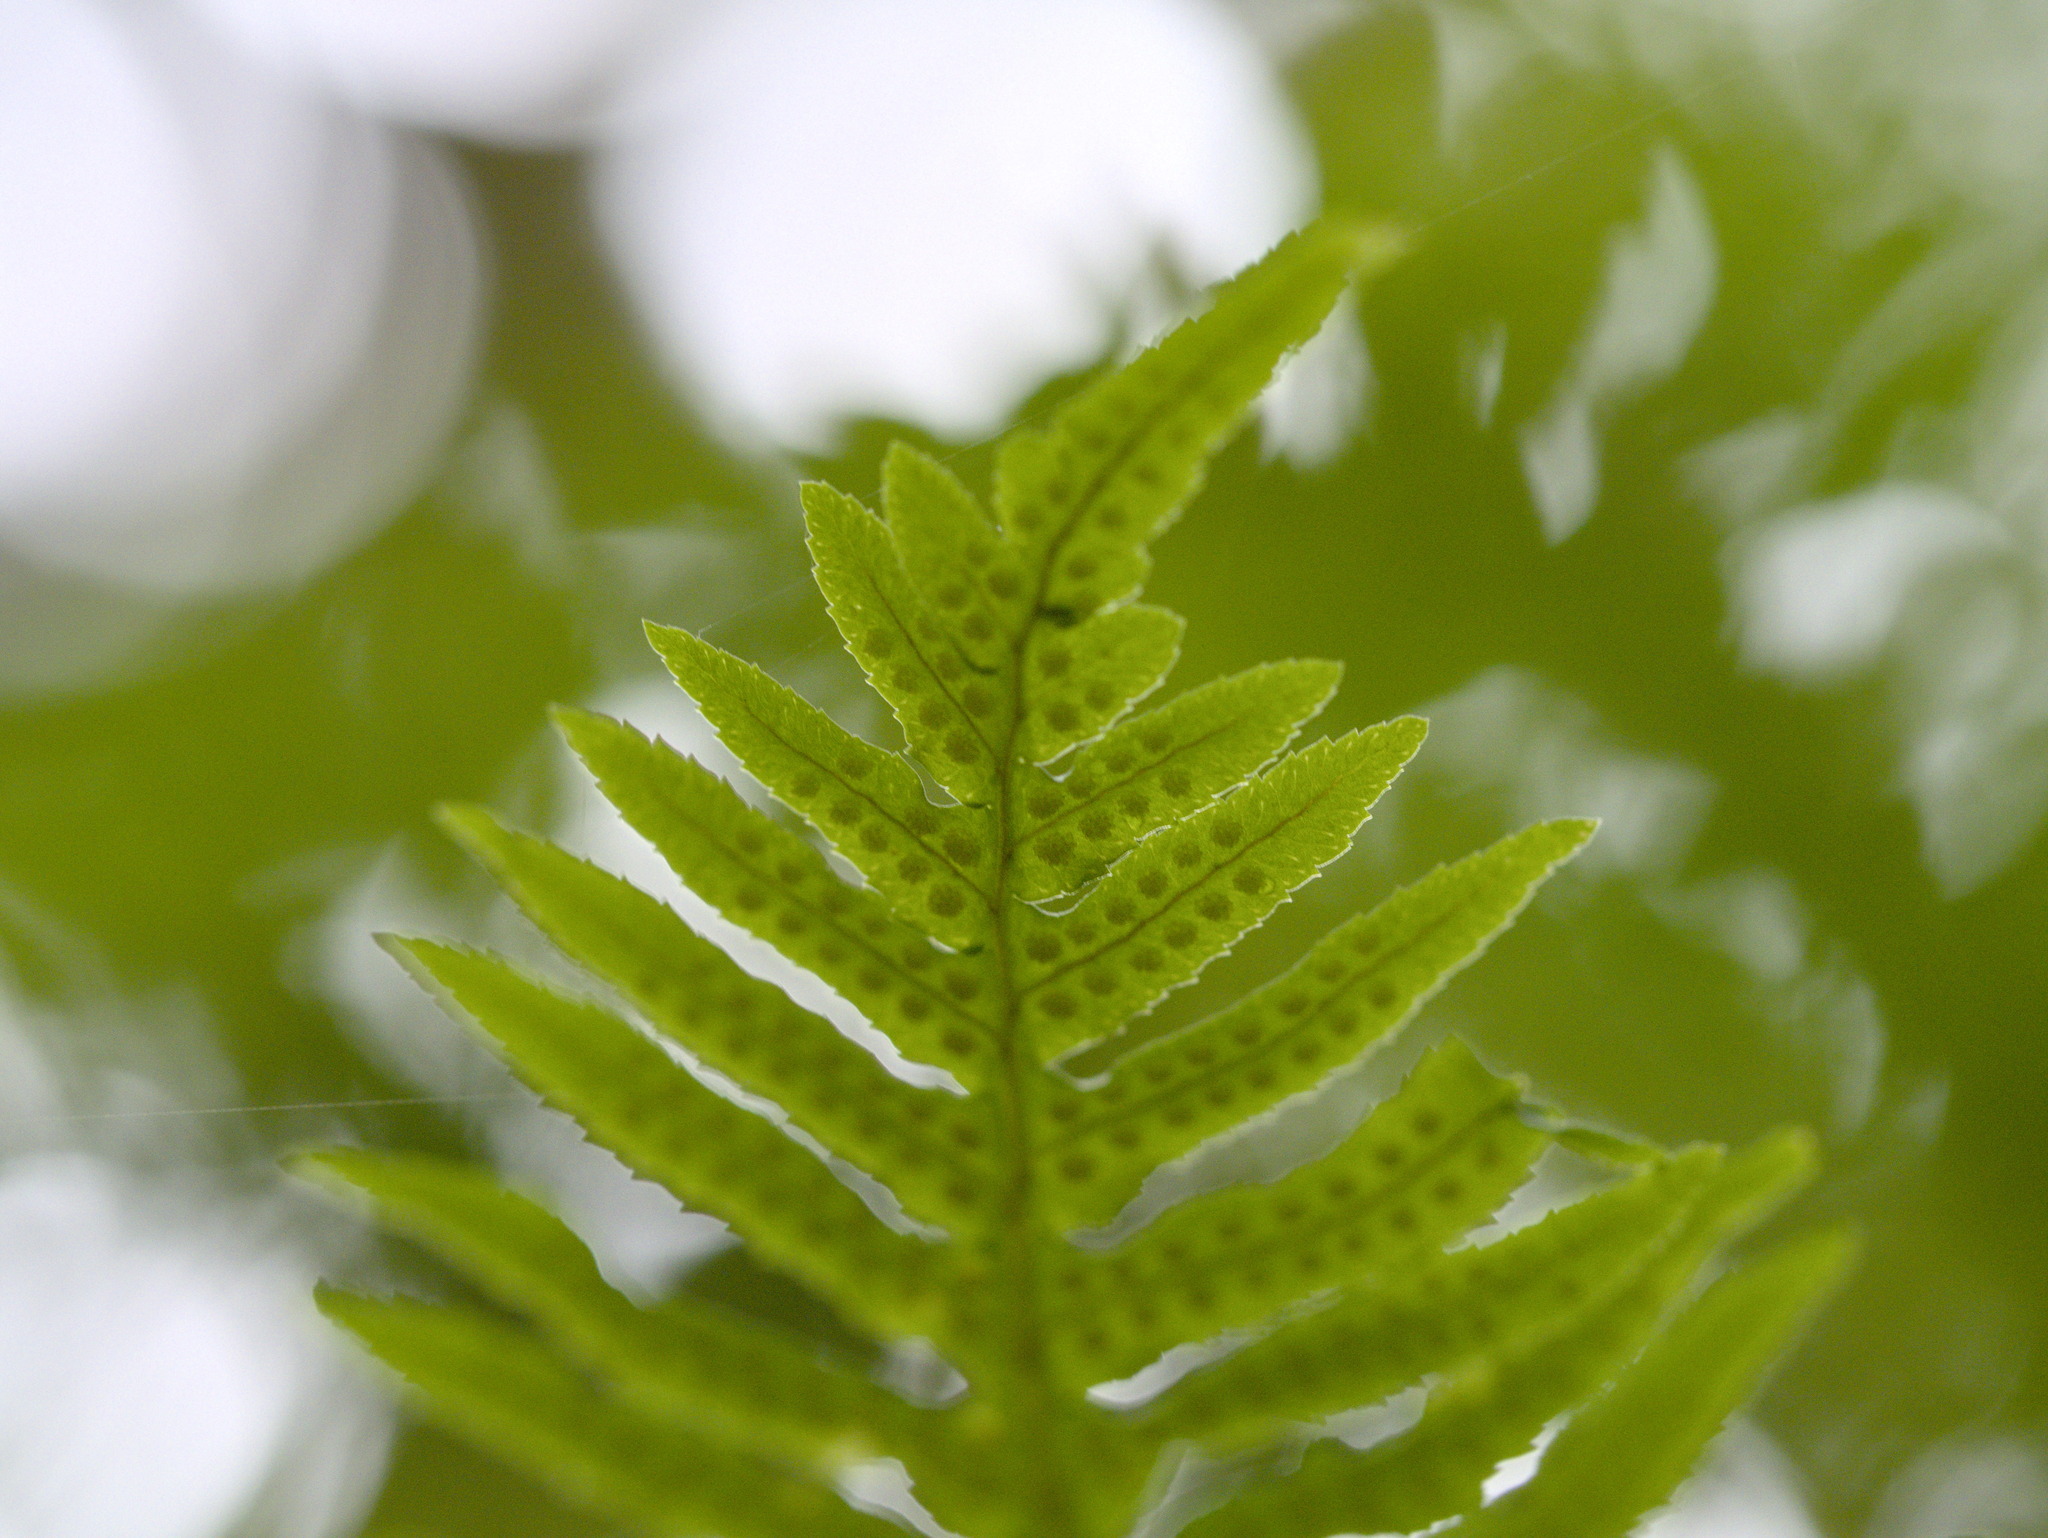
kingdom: Plantae
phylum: Tracheophyta
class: Polypodiopsida
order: Polypodiales
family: Polypodiaceae
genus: Polypodium
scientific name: Polypodium glycyrrhiza
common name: Licorice fern
